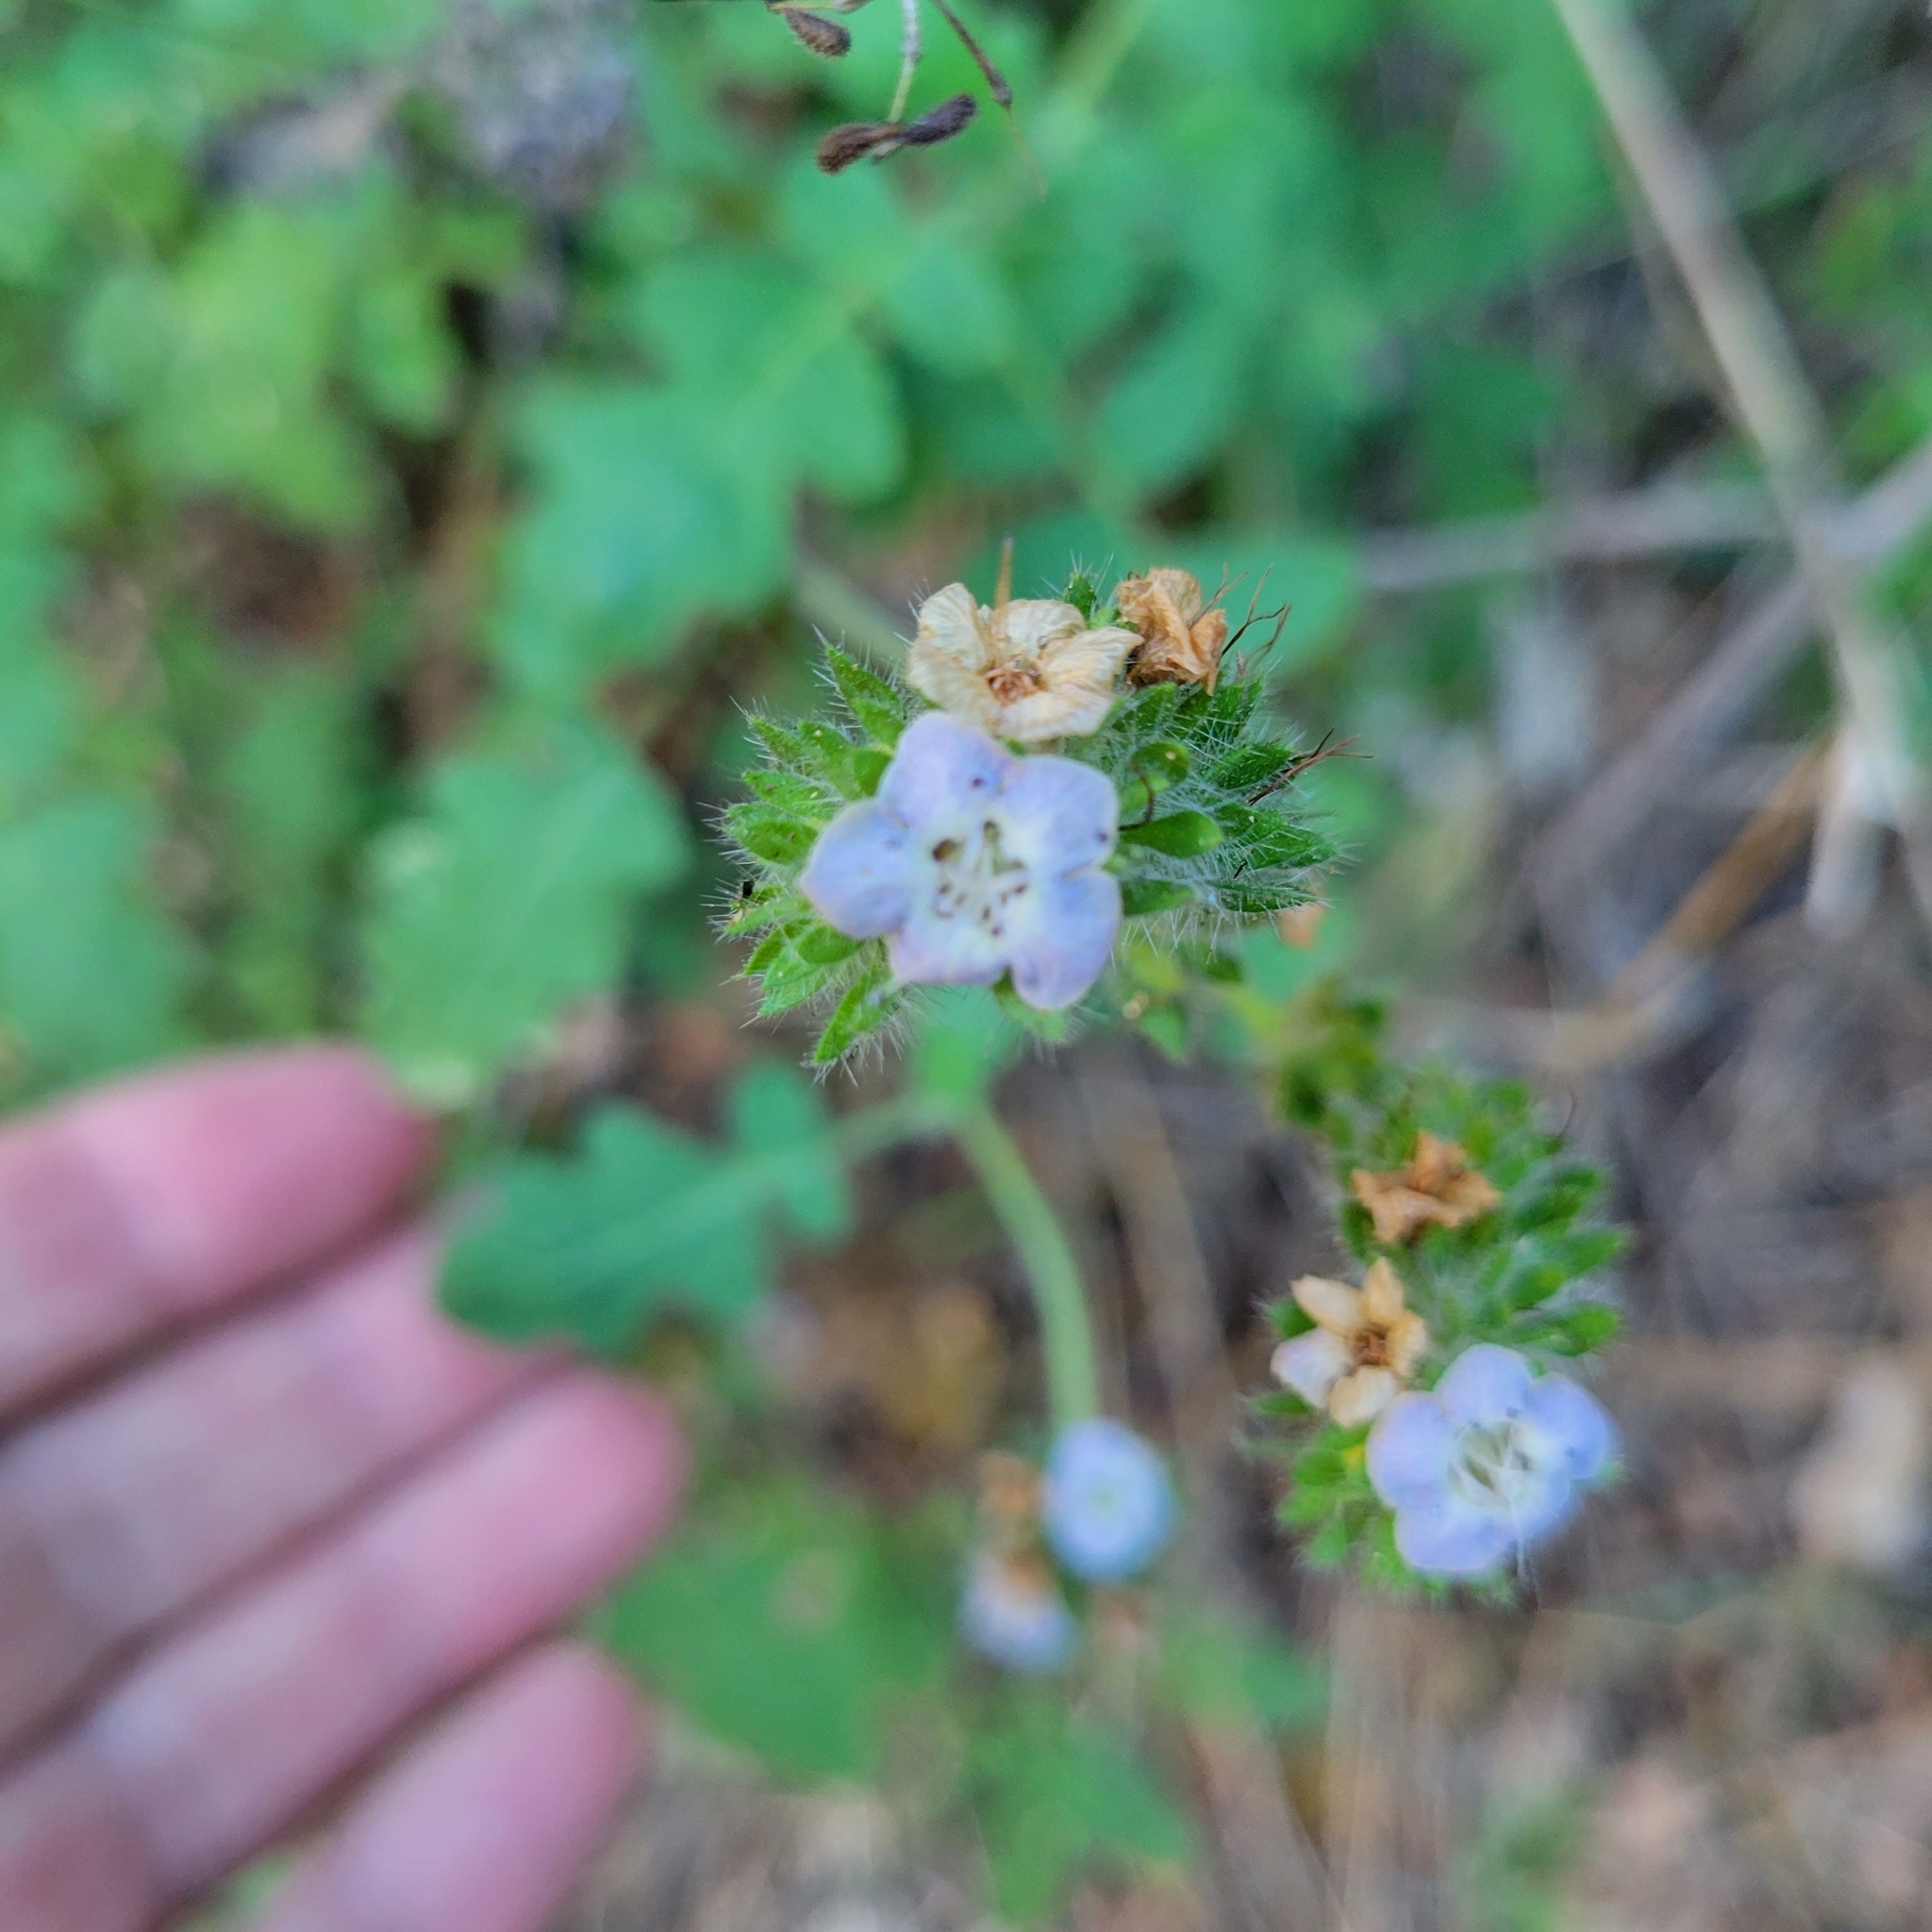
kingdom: Plantae
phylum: Tracheophyta
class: Magnoliopsida
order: Boraginales
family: Hydrophyllaceae
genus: Phacelia
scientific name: Phacelia ramosissima
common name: Branching phacelia
